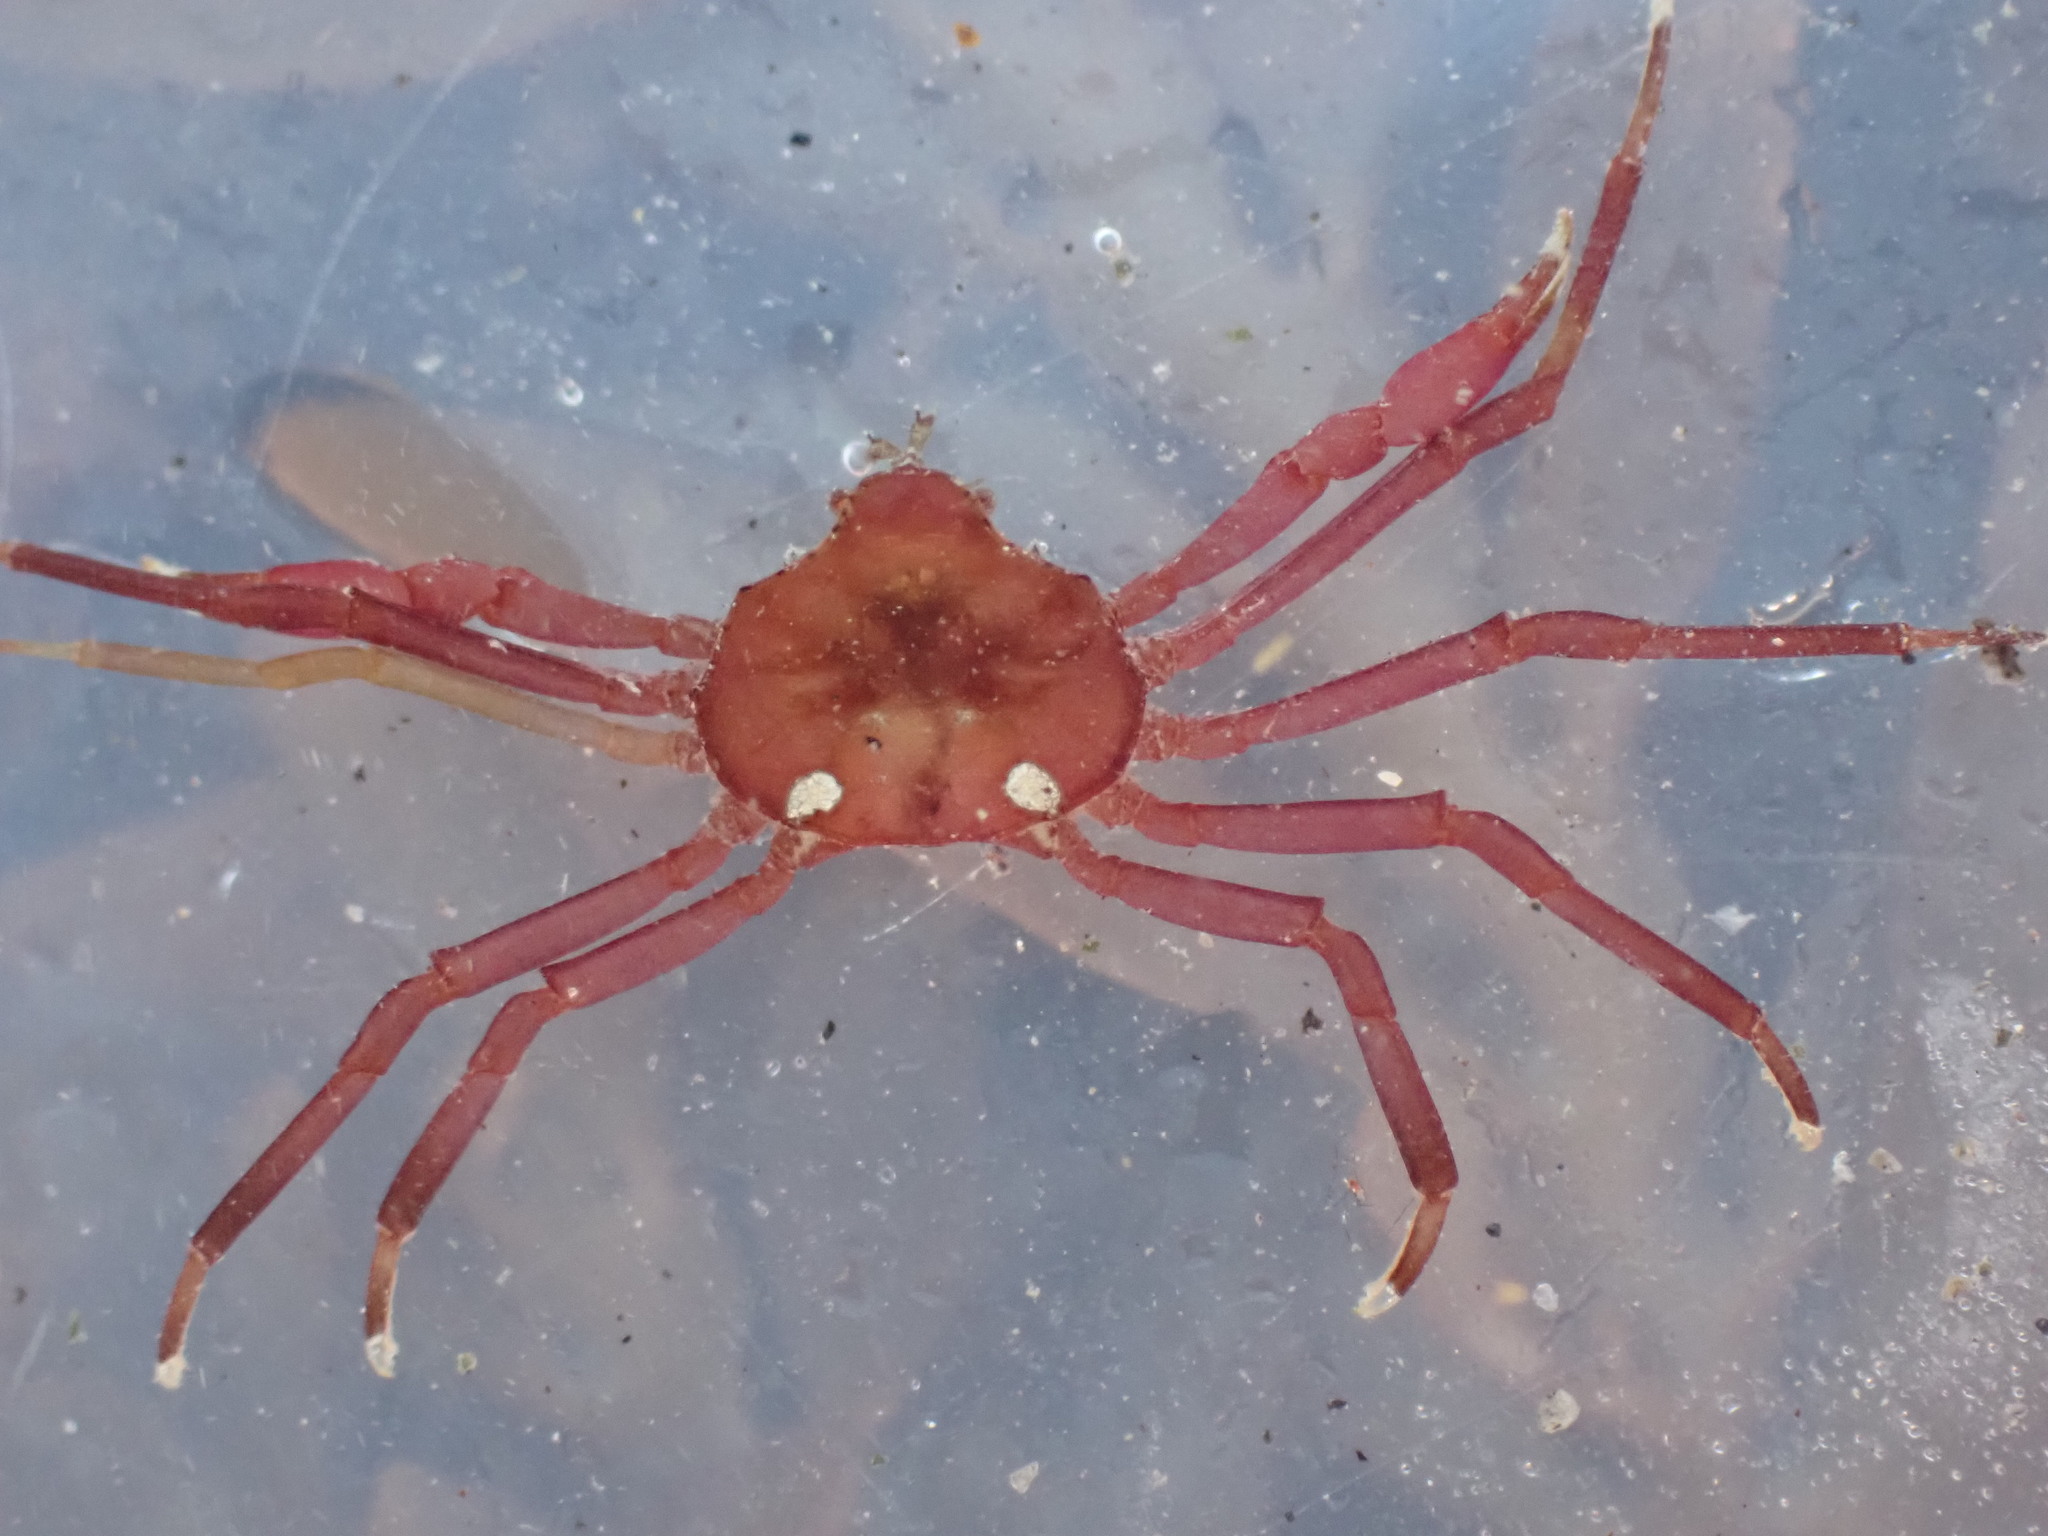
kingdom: Animalia
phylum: Arthropoda
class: Malacostraca
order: Decapoda
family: Hymenosomatidae
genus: Elamena
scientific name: Elamena producta
